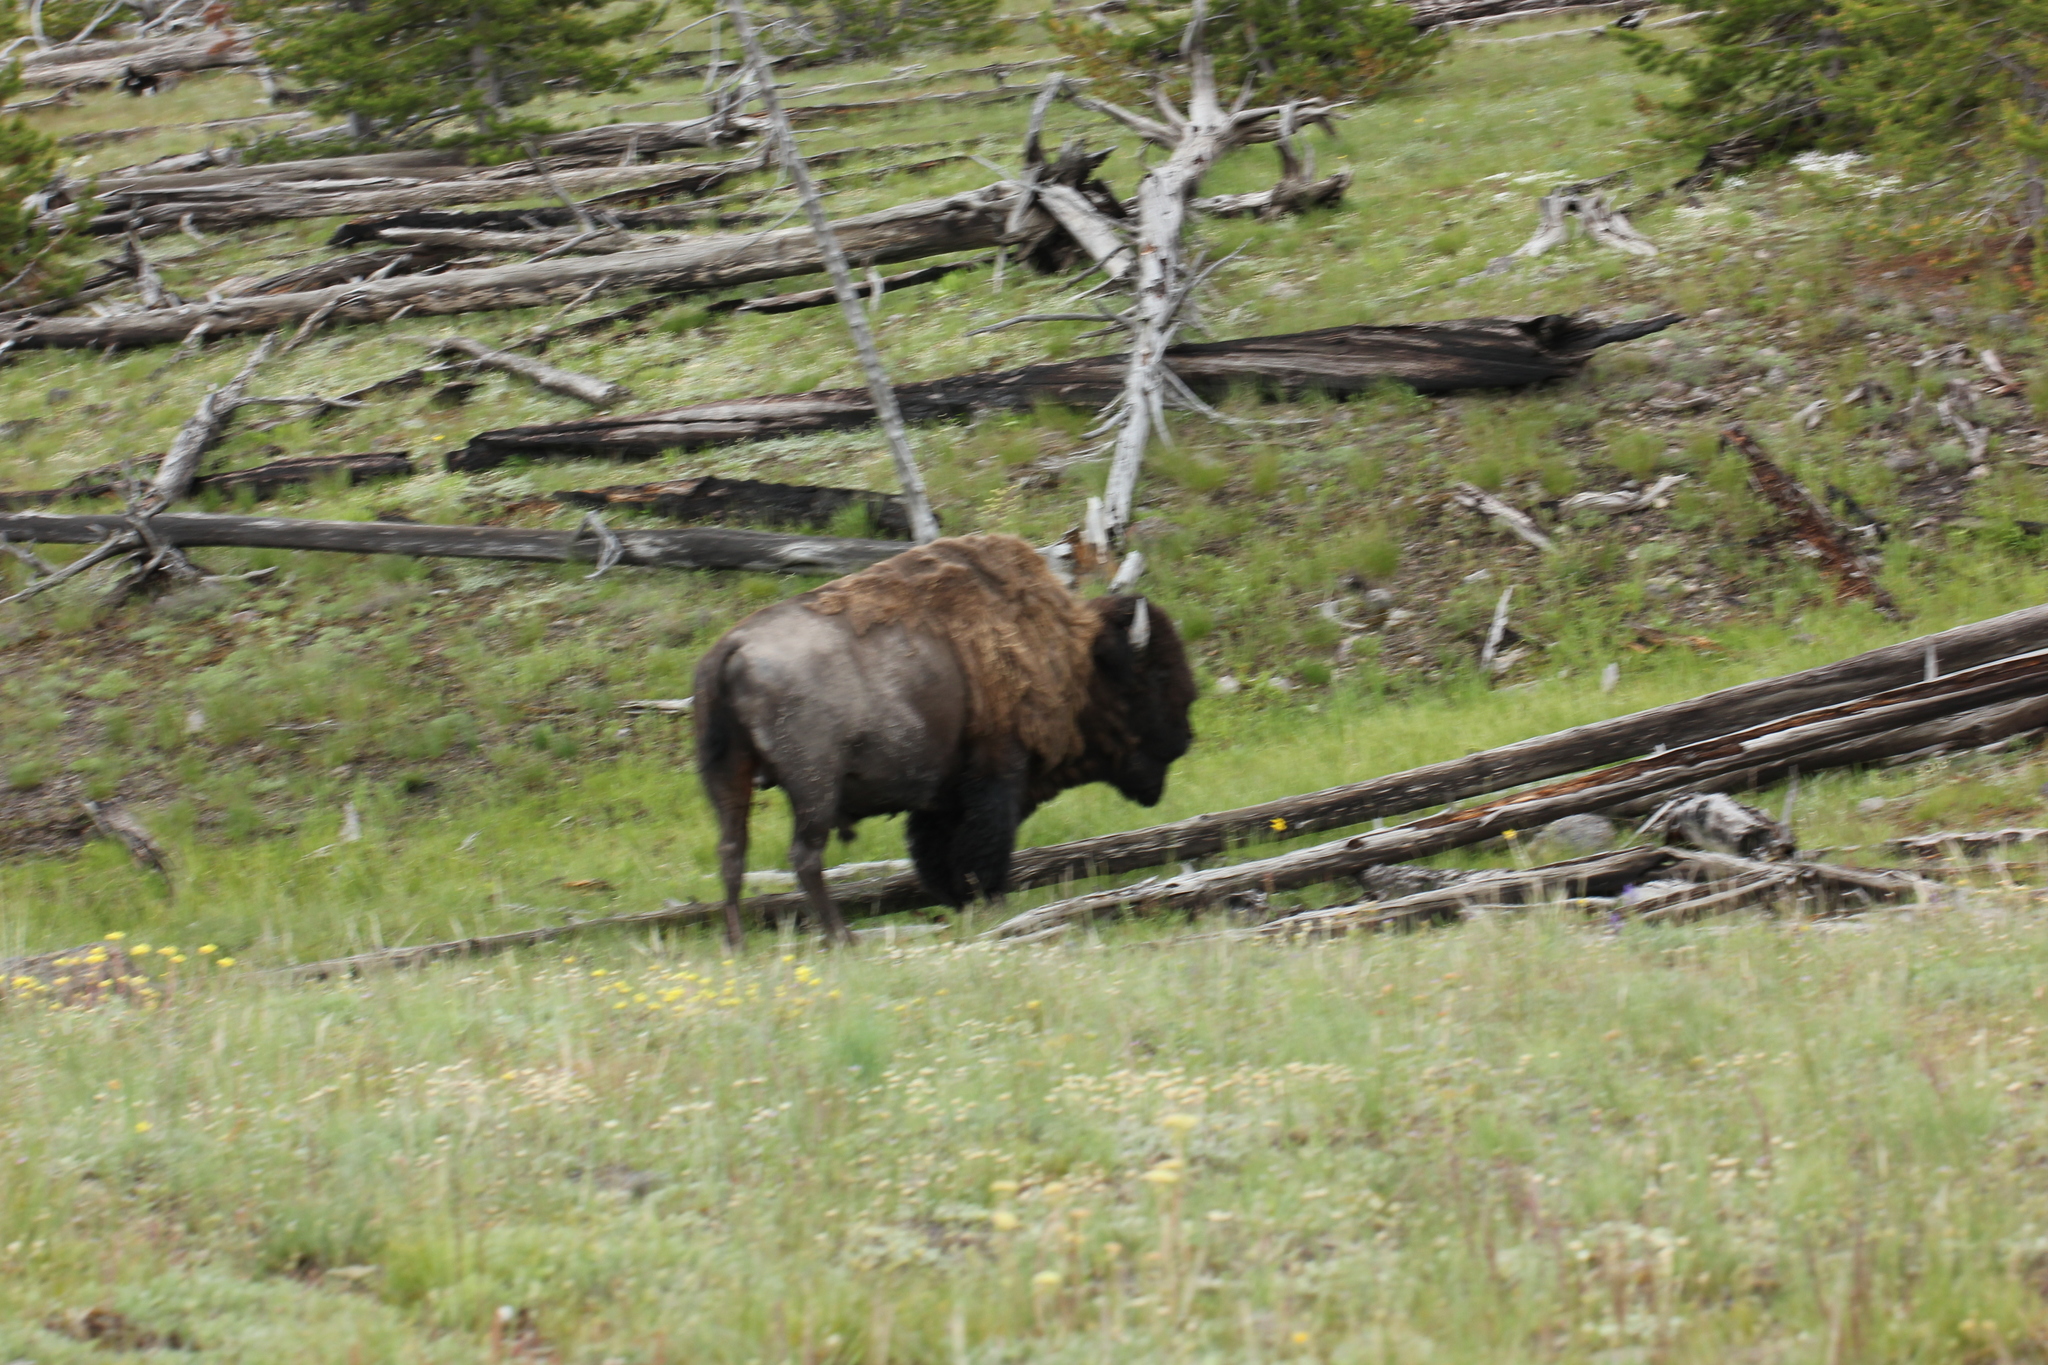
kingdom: Animalia
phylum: Chordata
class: Mammalia
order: Artiodactyla
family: Bovidae
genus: Bison
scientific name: Bison bison
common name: American bison
